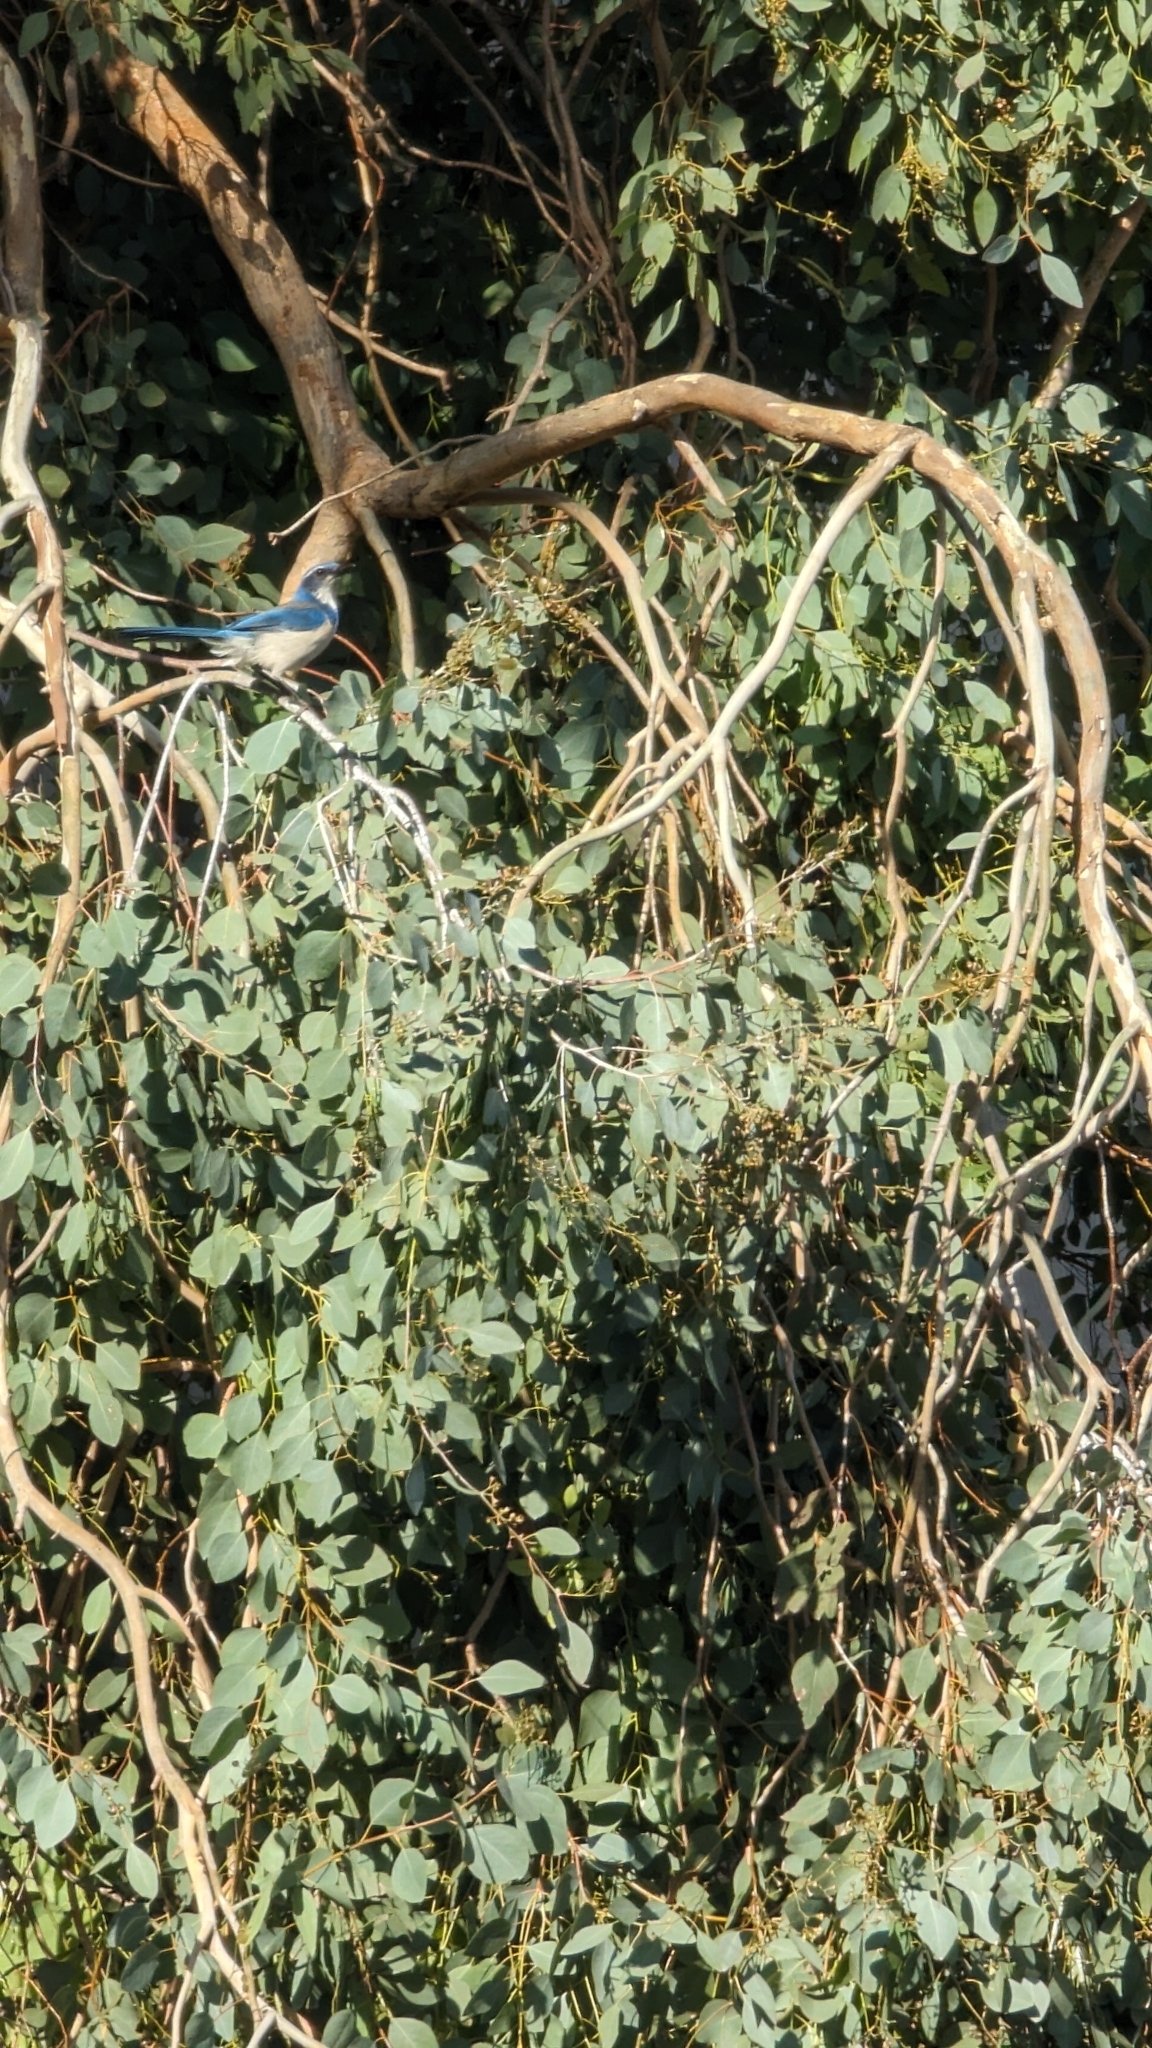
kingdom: Animalia
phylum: Chordata
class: Aves
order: Passeriformes
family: Corvidae
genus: Aphelocoma
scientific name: Aphelocoma californica
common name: California scrub-jay
